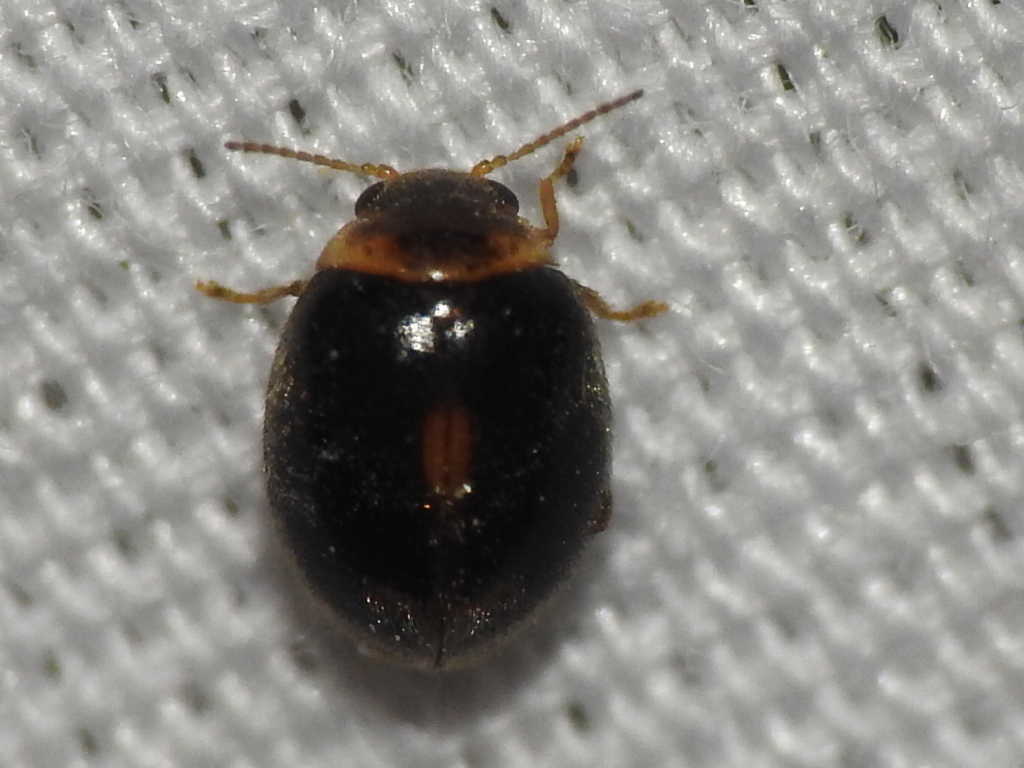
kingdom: Animalia
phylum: Arthropoda
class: Insecta
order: Coleoptera
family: Scirtidae
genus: Scirtes
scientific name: Scirtes orbiculatus
